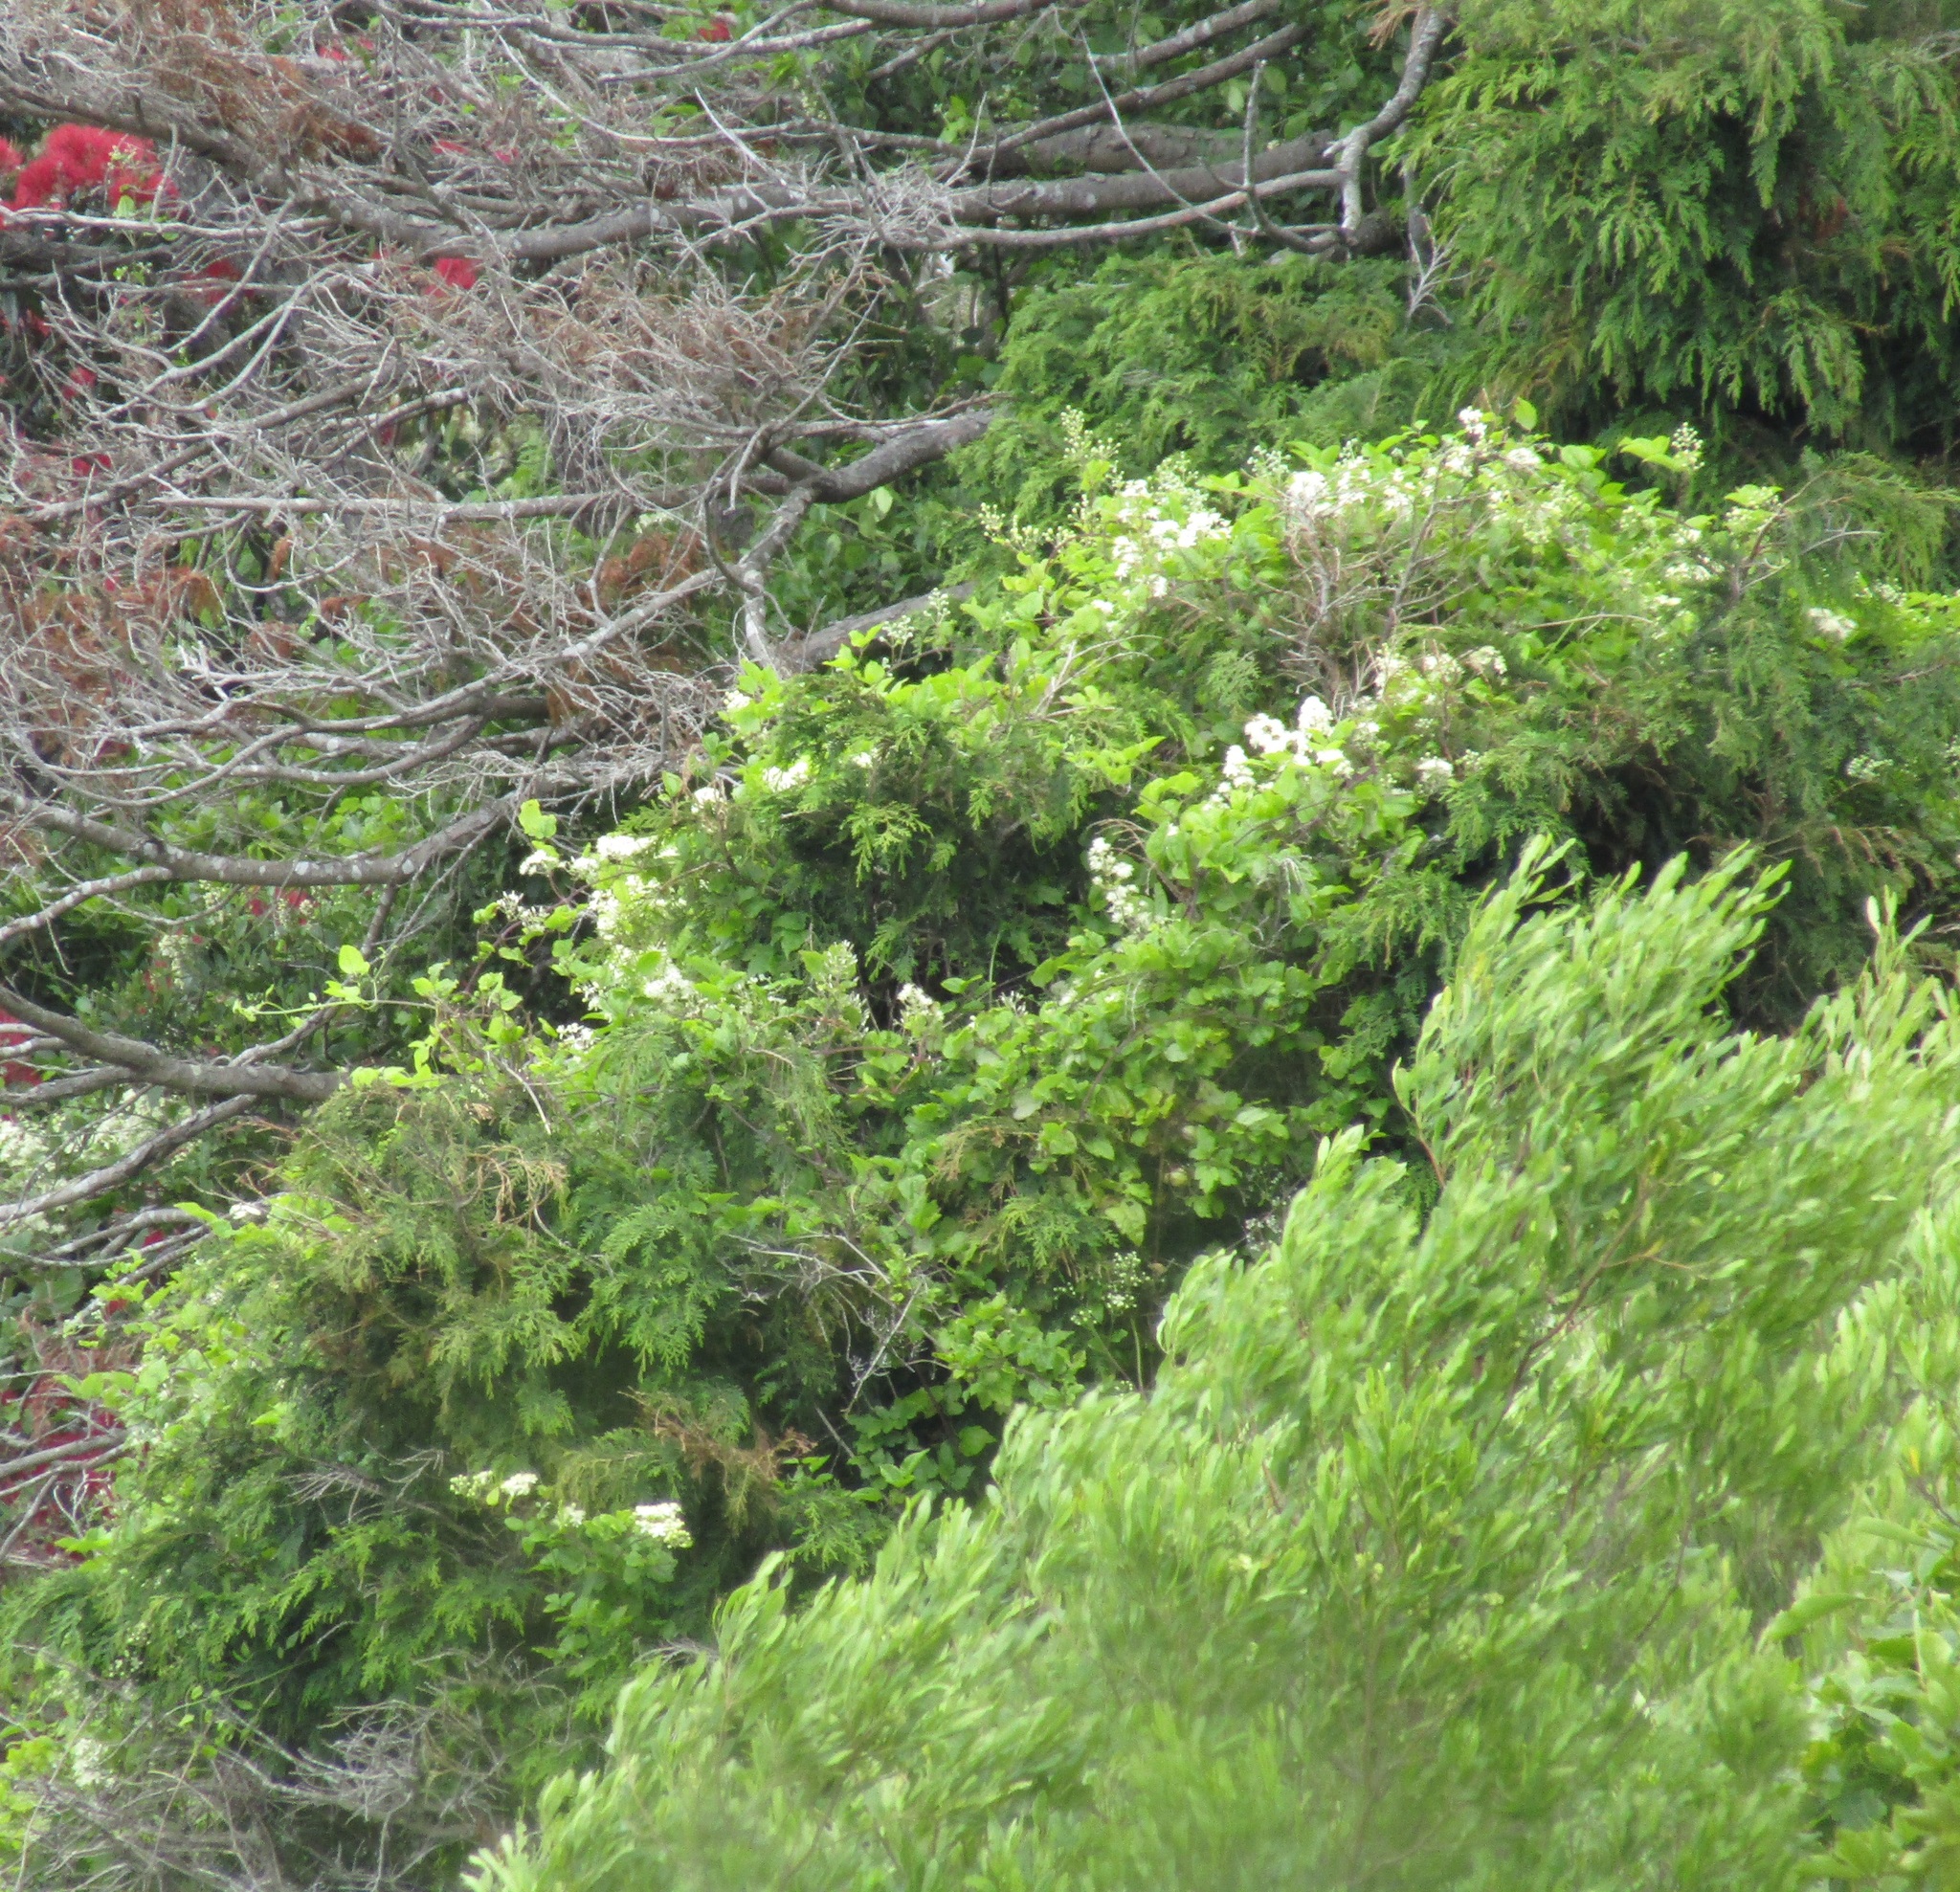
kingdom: Plantae
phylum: Tracheophyta
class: Magnoliopsida
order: Ranunculales
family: Ranunculaceae
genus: Clematis
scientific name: Clematis vitalba
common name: Evergreen clematis
